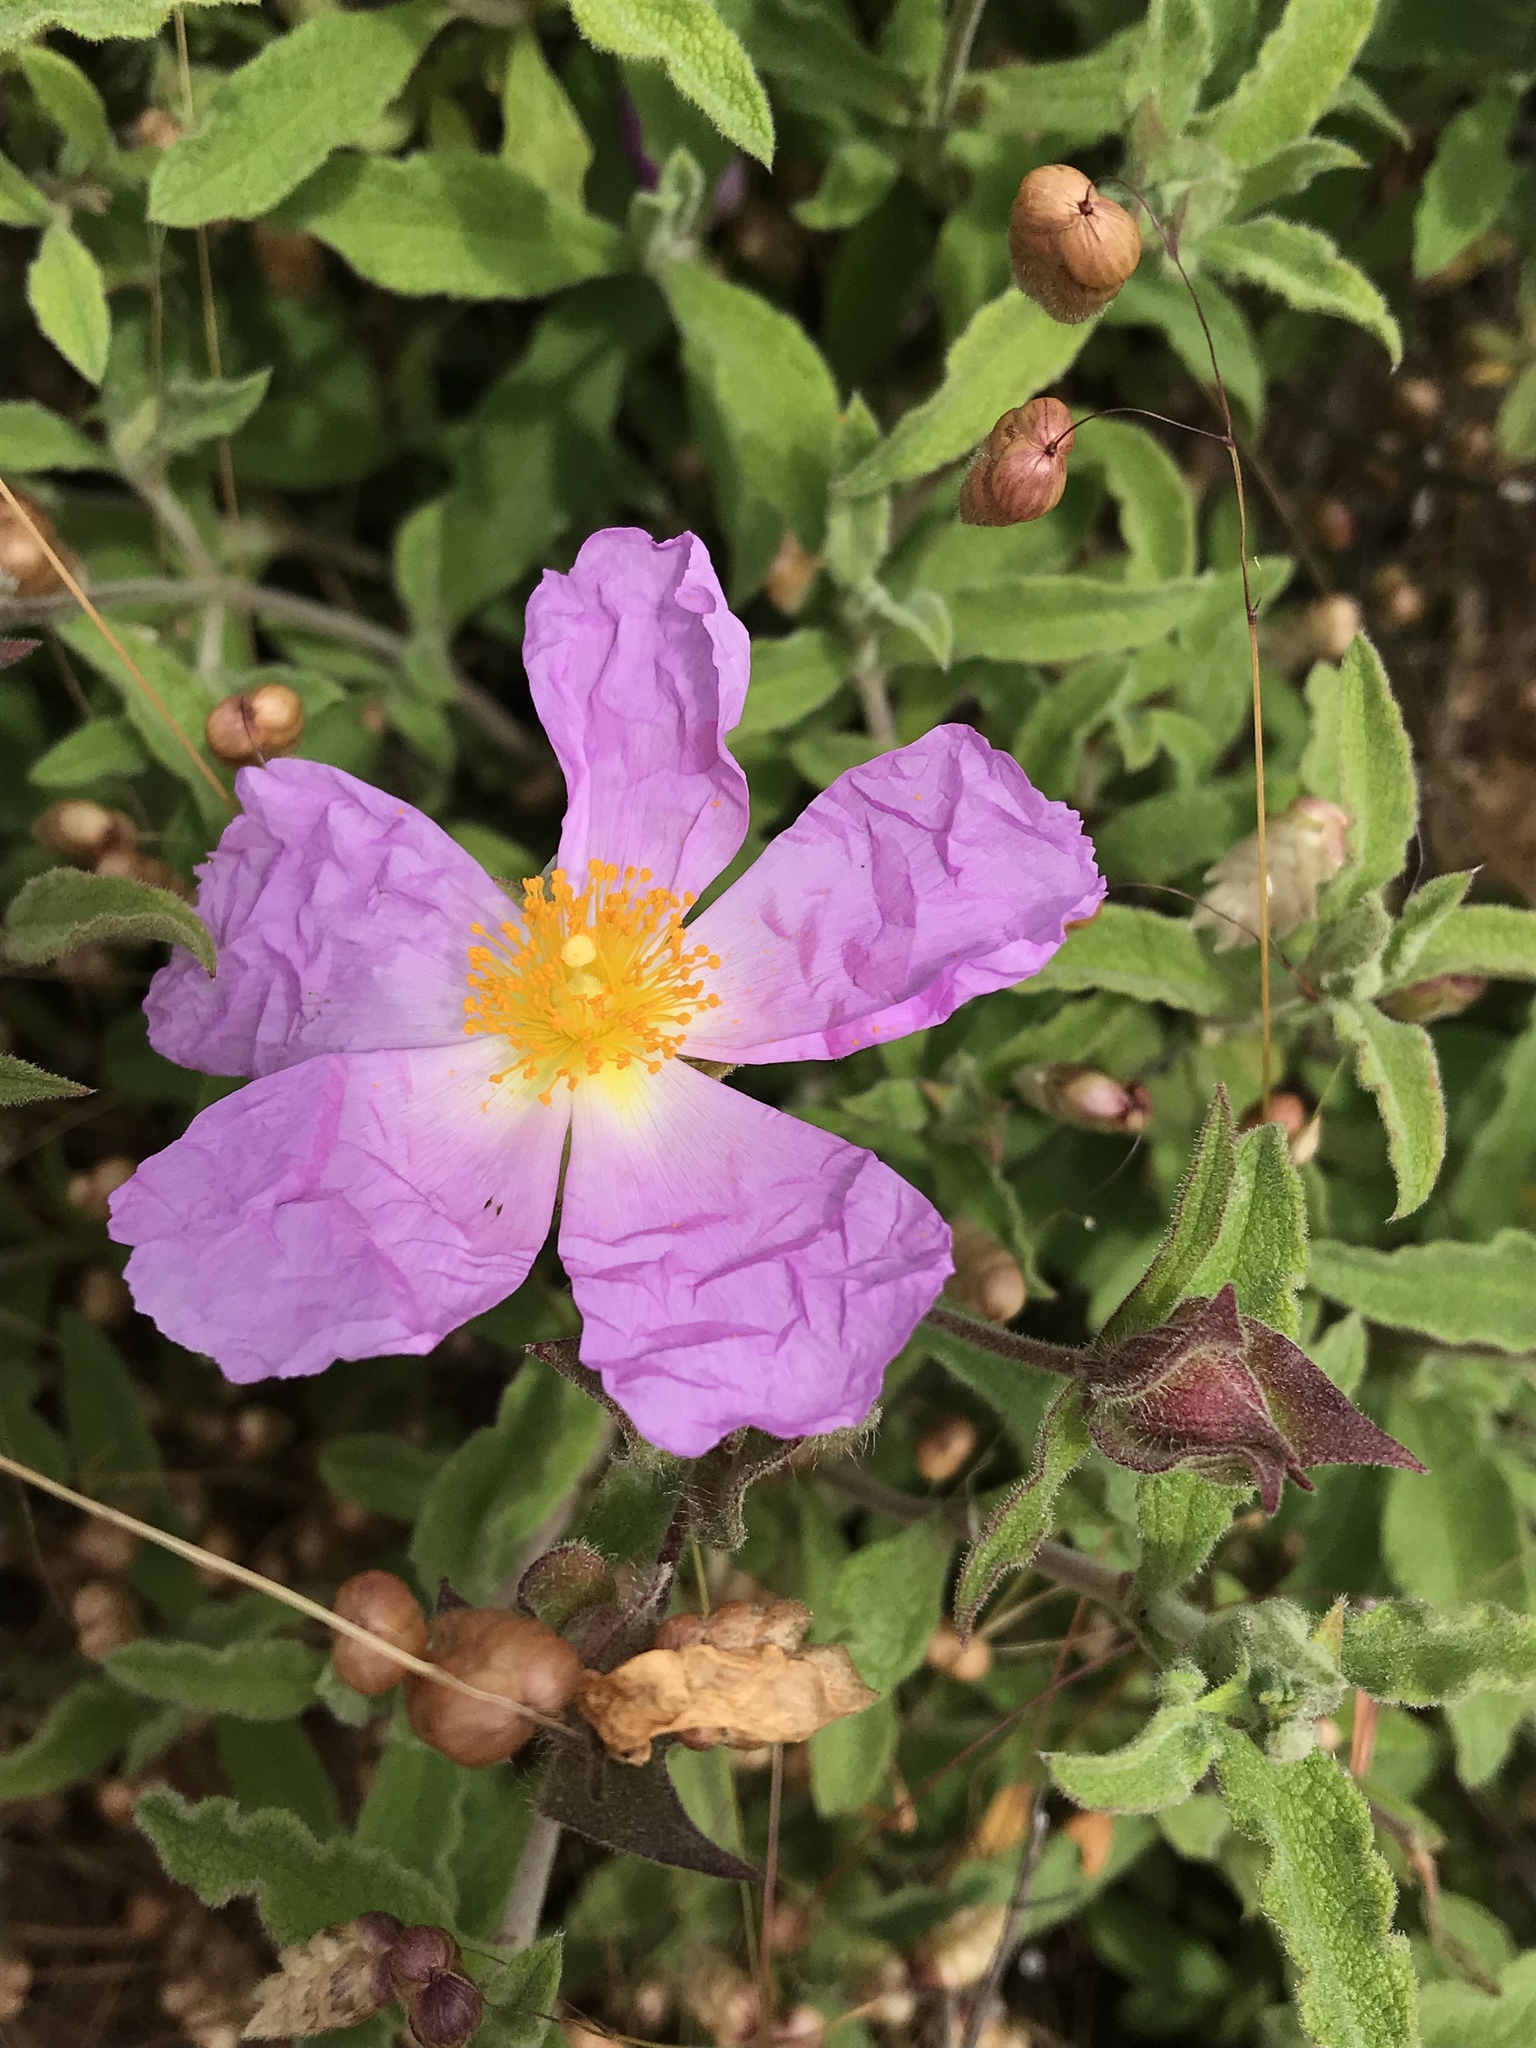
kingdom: Plantae
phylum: Tracheophyta
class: Magnoliopsida
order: Malvales
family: Cistaceae
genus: Cistus
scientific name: Cistus creticus
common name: Cretan rockrose
